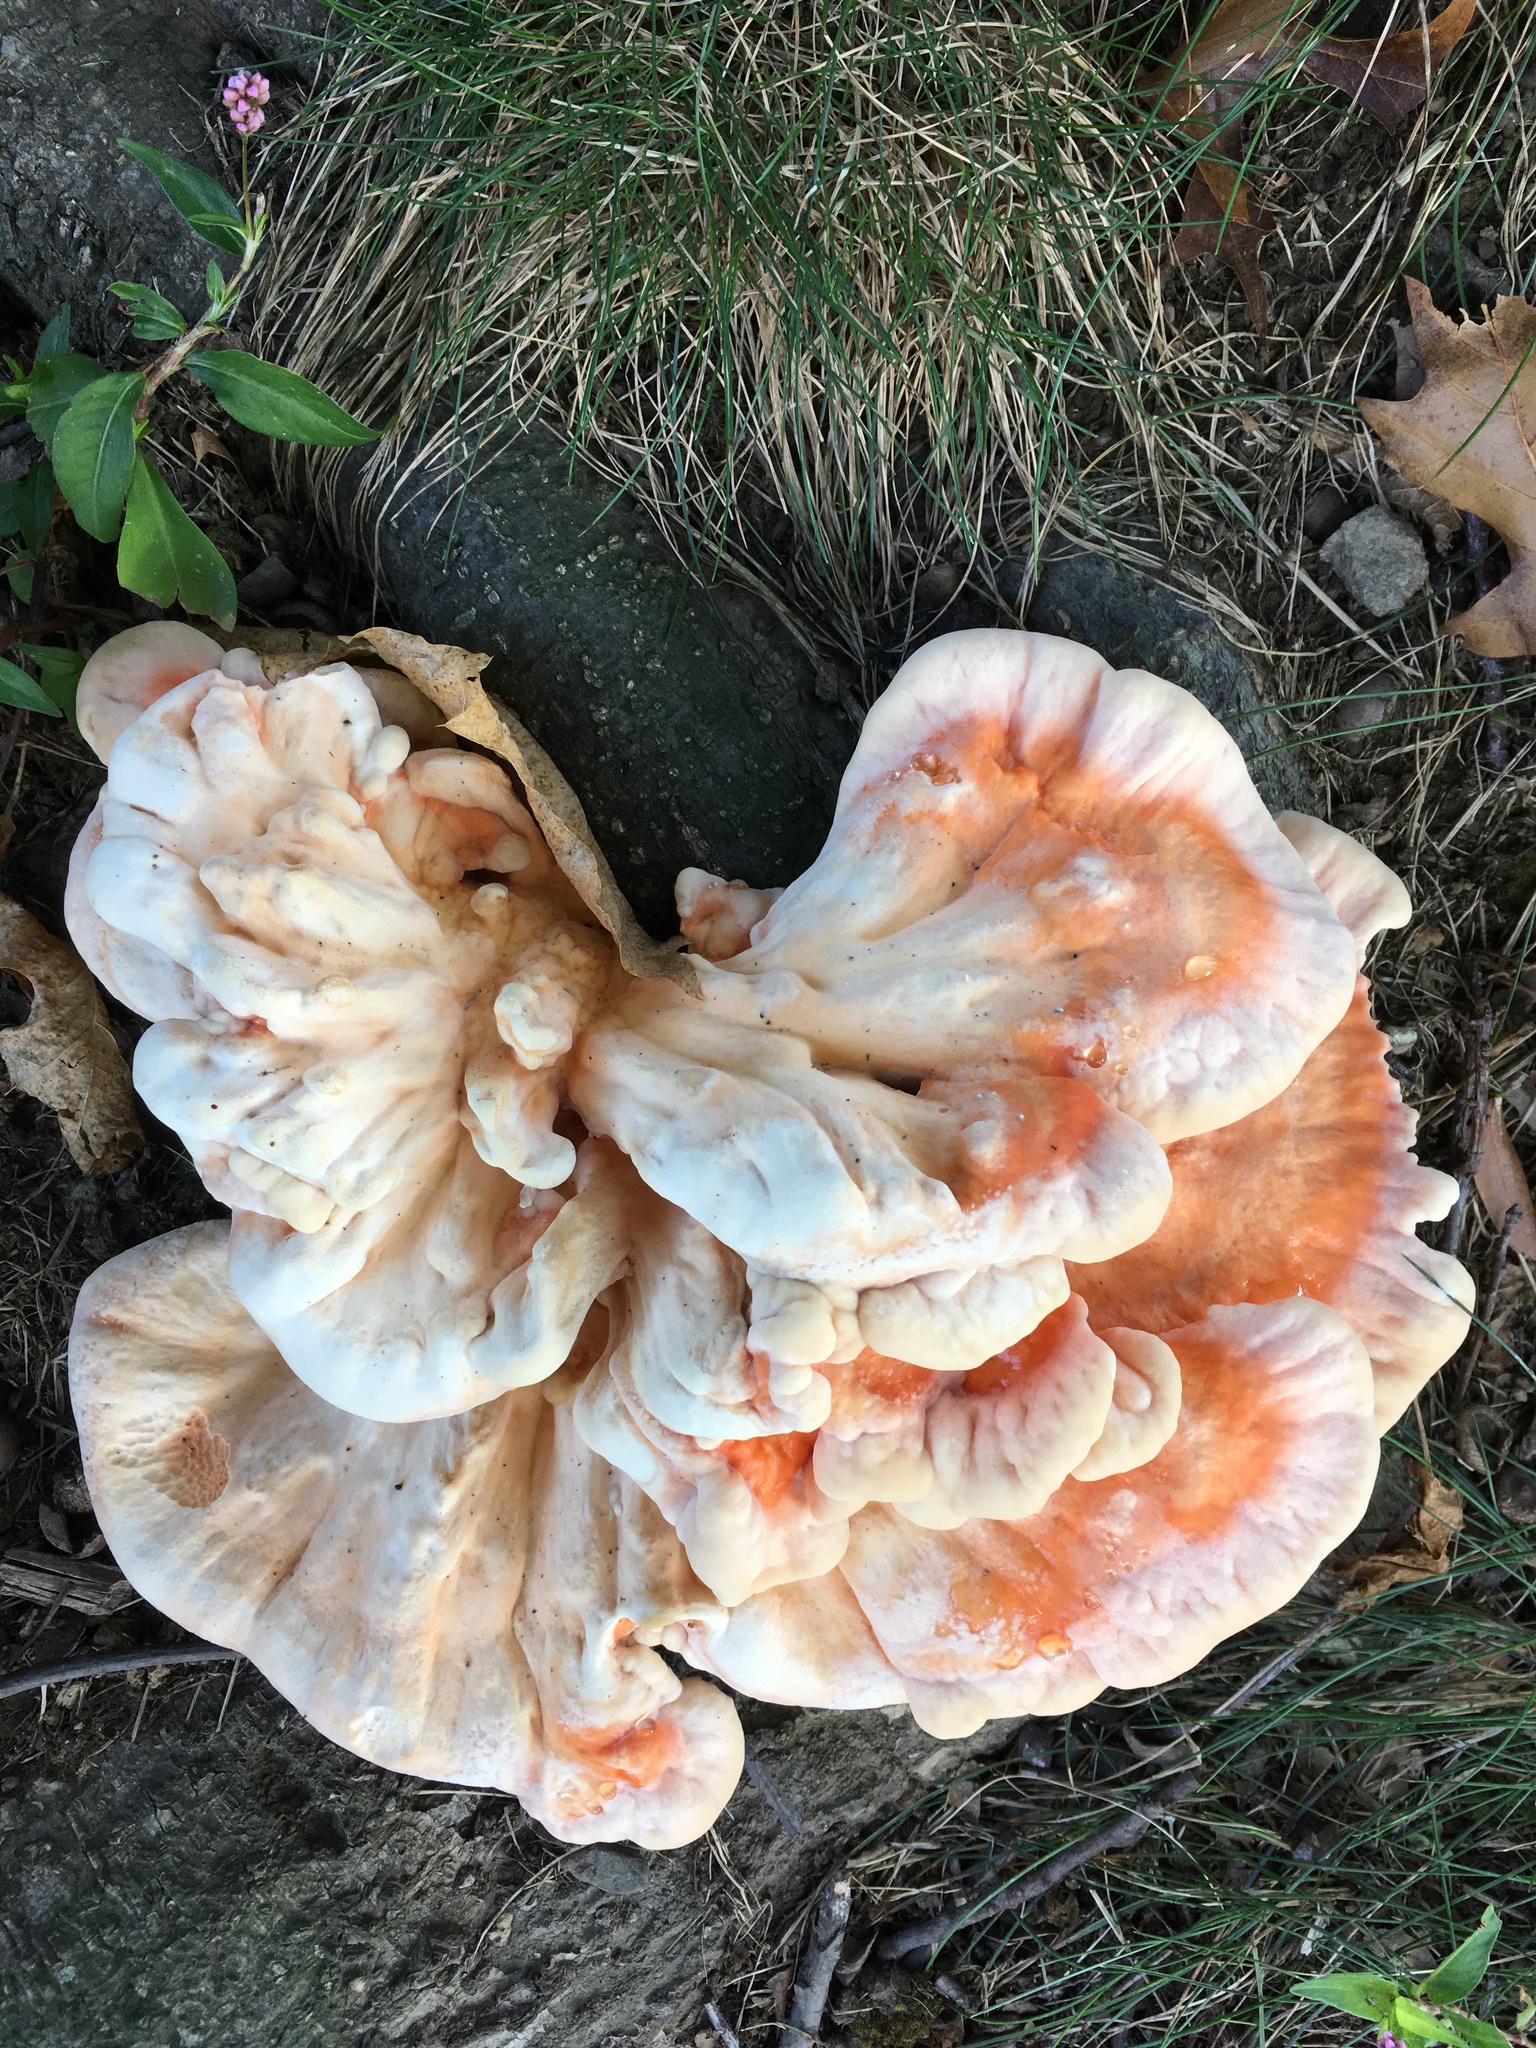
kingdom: Fungi
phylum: Basidiomycota
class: Agaricomycetes
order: Polyporales
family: Laetiporaceae
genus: Laetiporus
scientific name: Laetiporus sulphureus
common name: Chicken of the woods
